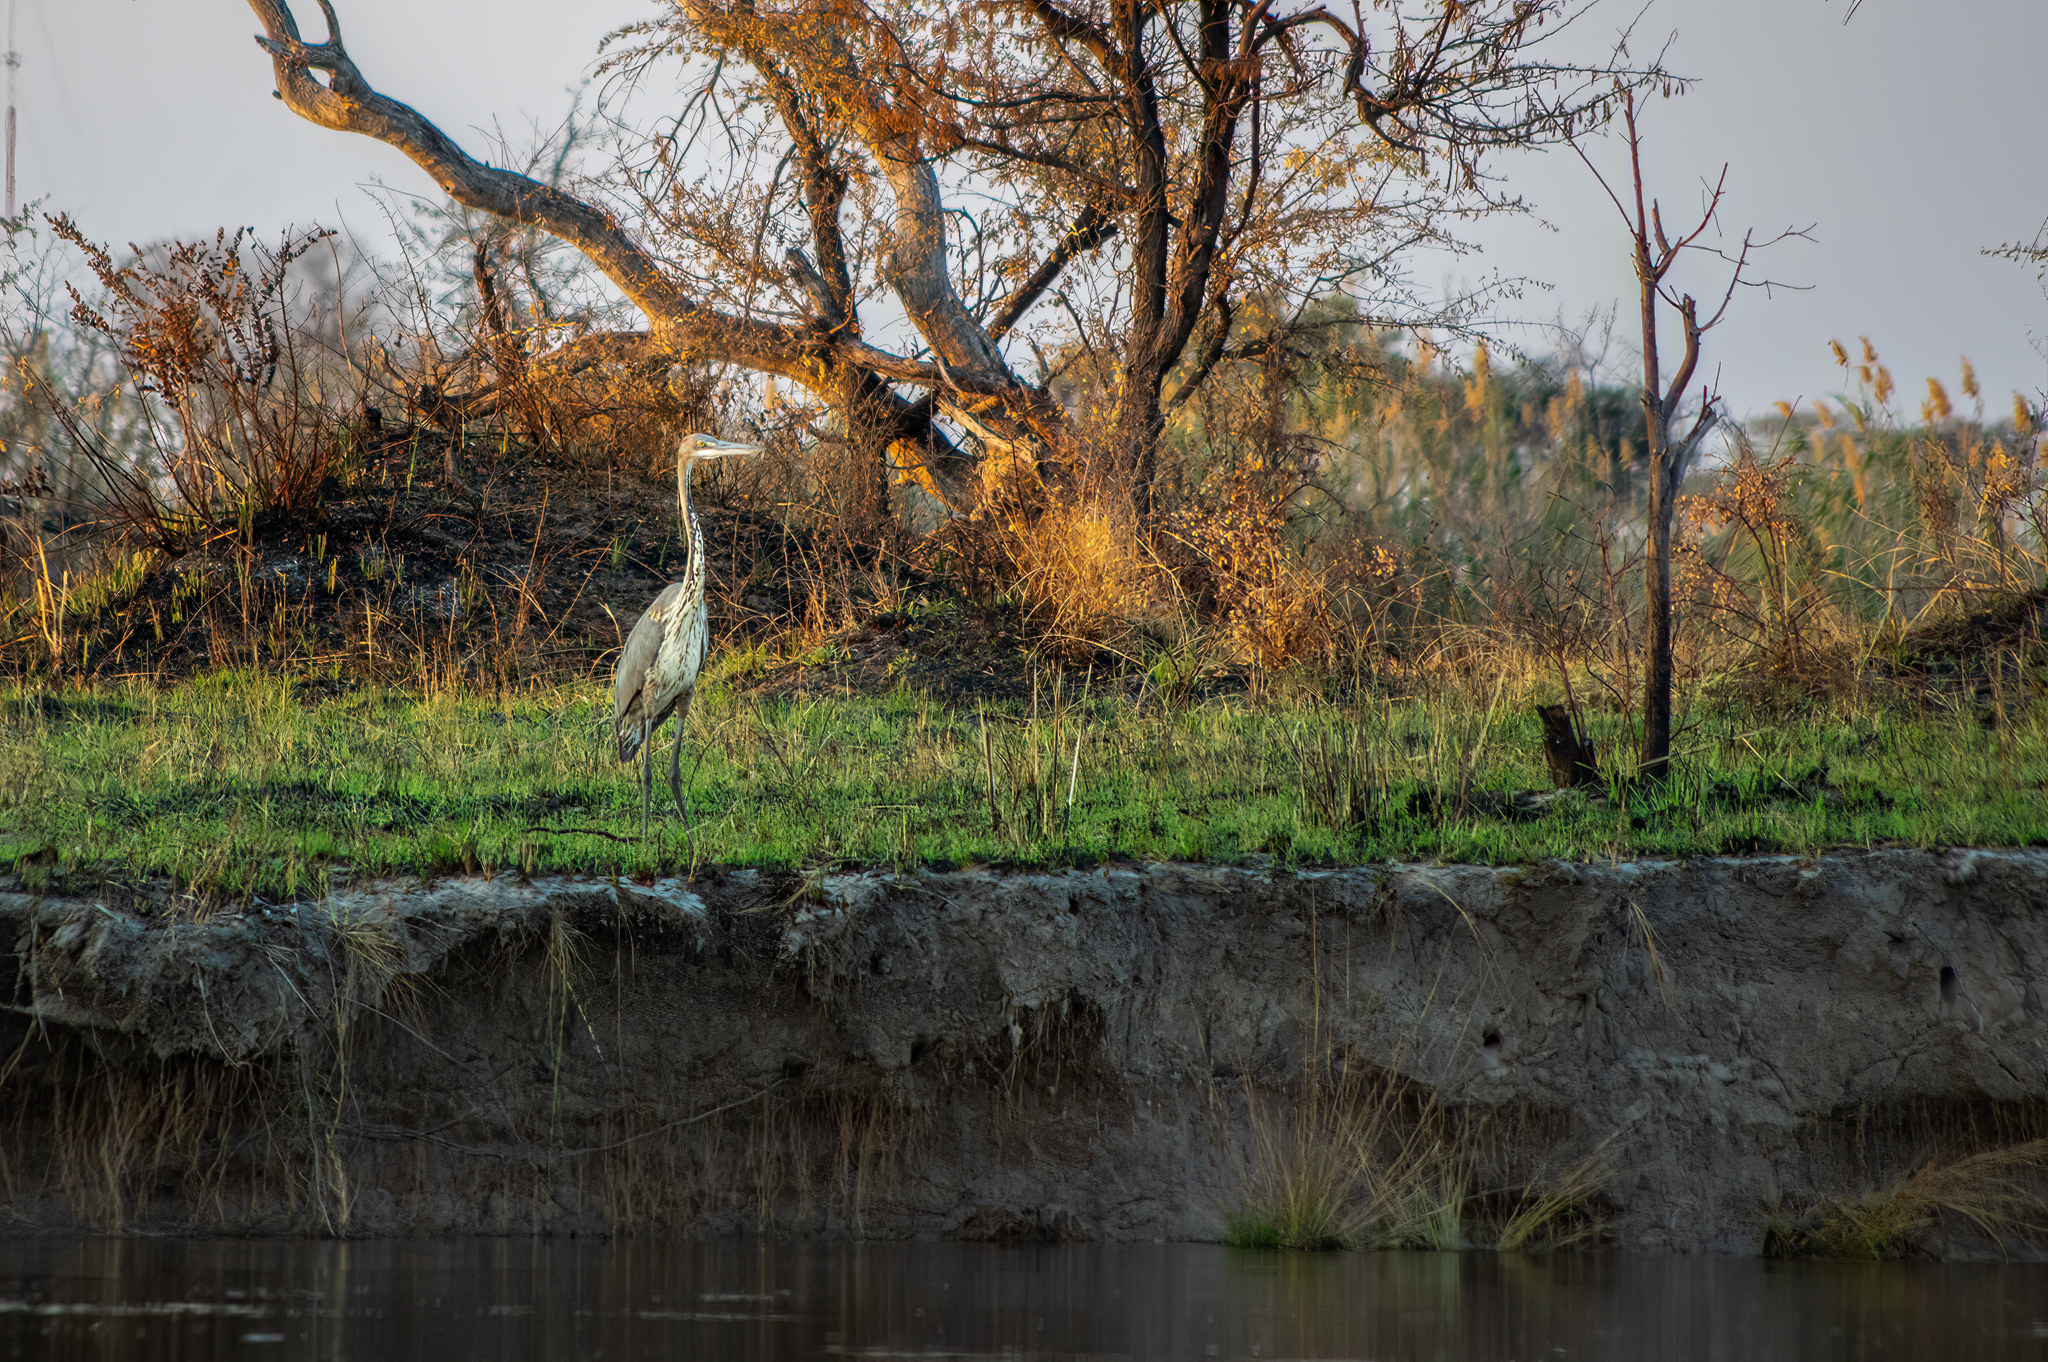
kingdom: Animalia
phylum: Chordata
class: Aves
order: Pelecaniformes
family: Ardeidae
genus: Ardea
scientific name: Ardea goliath
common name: Goliath heron
